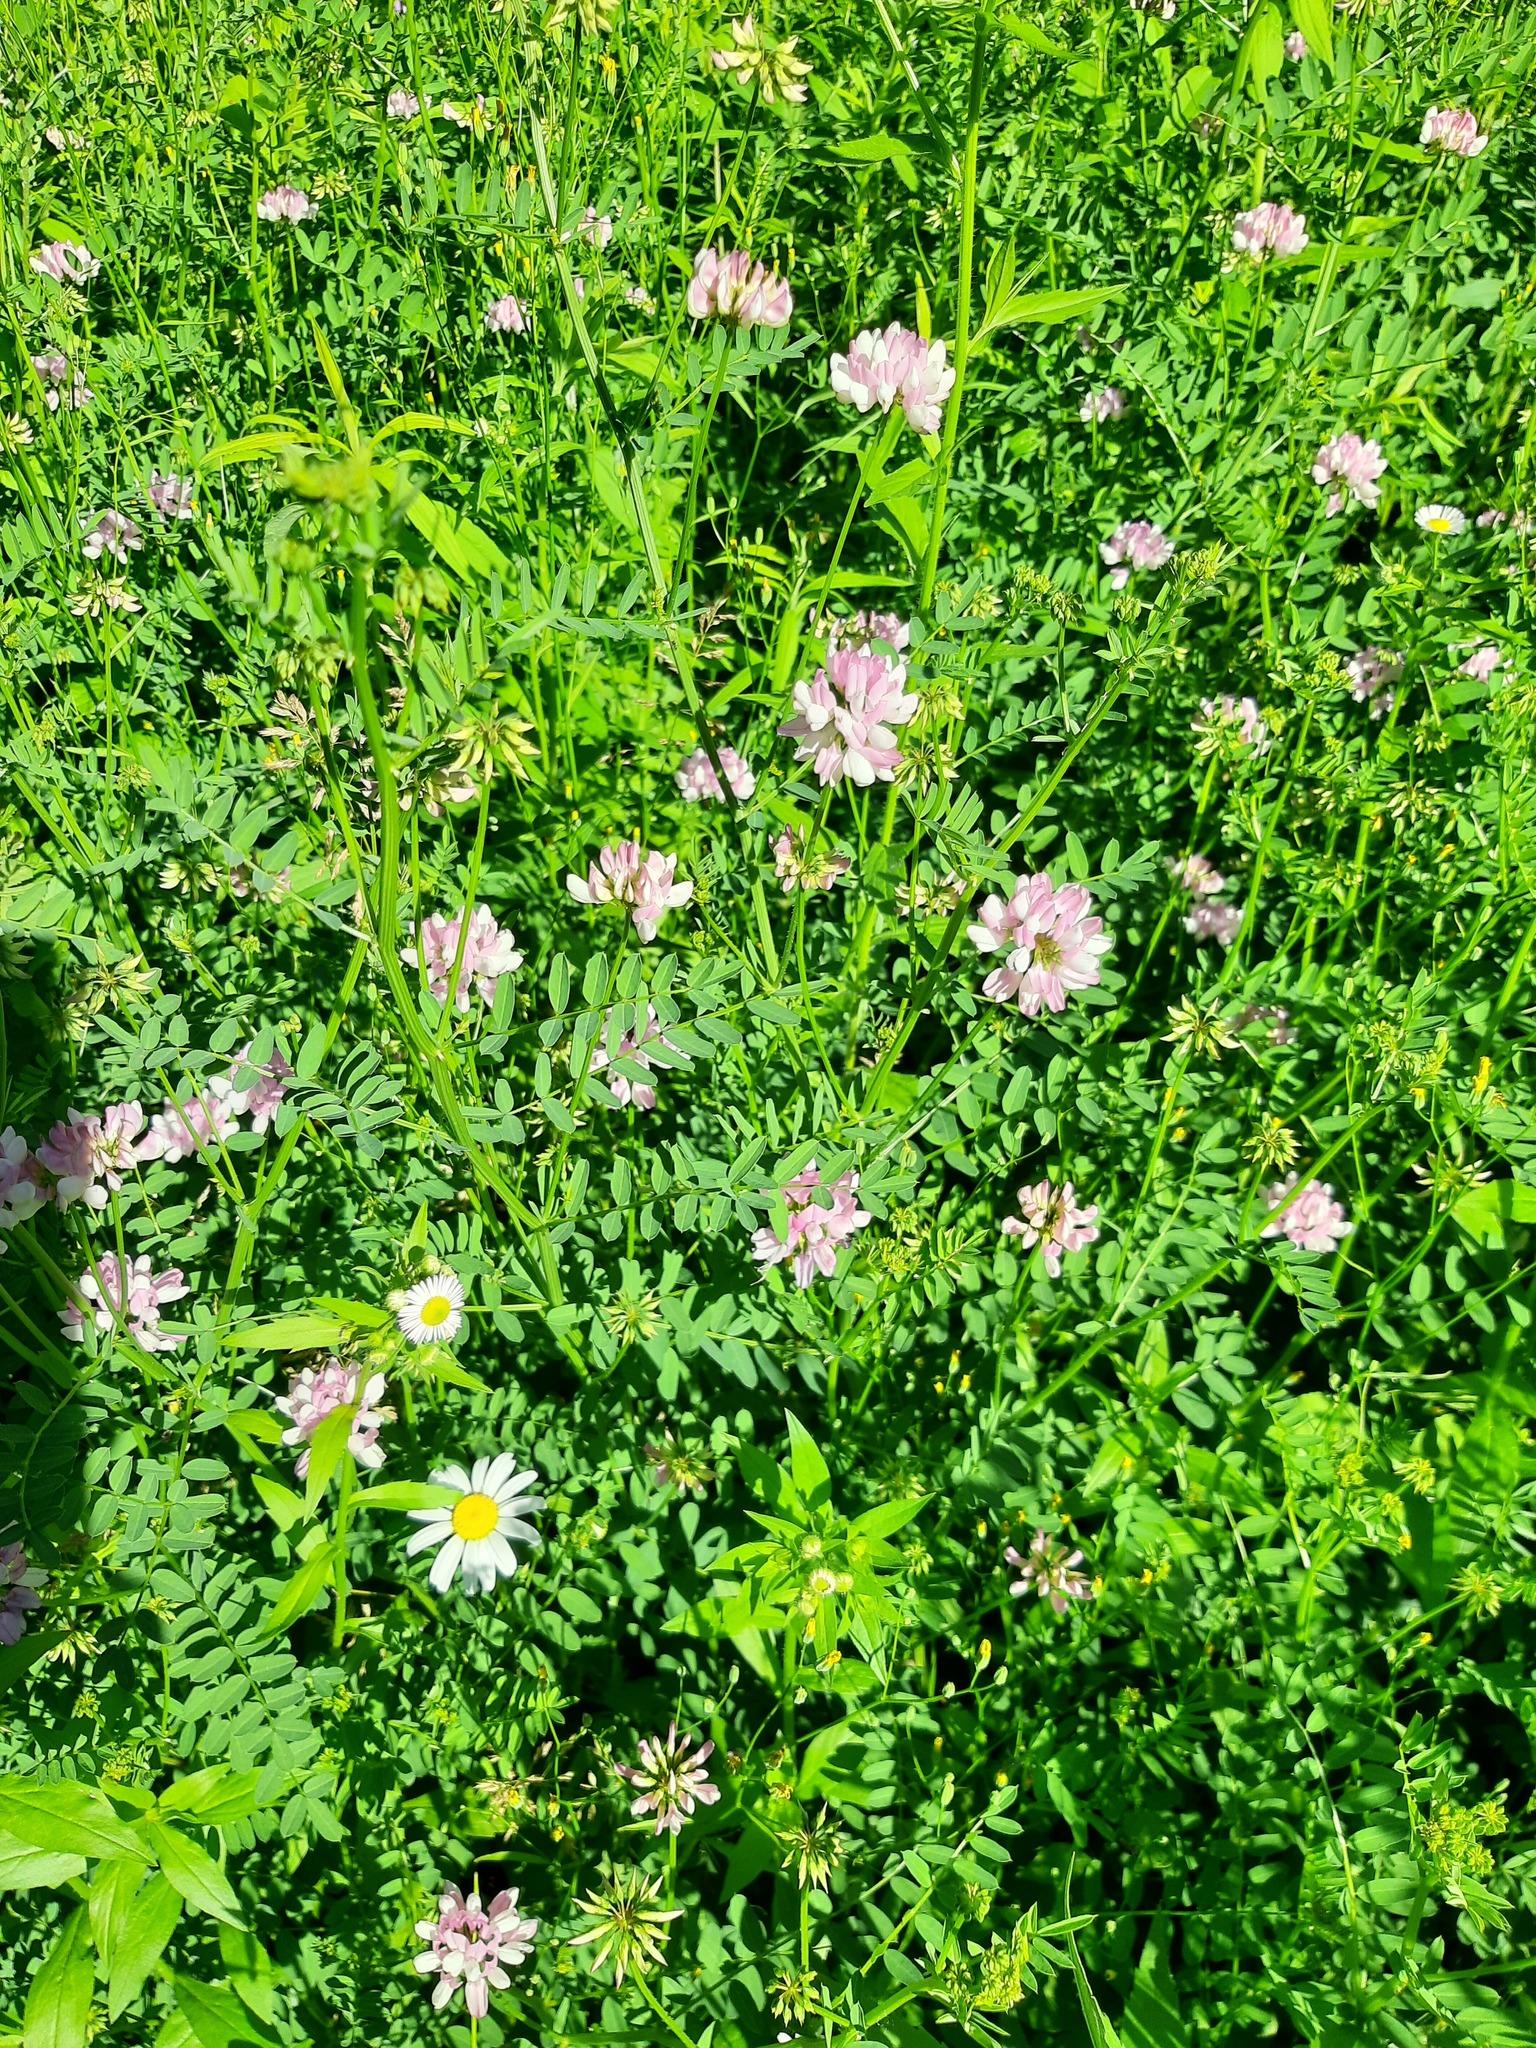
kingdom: Plantae
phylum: Tracheophyta
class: Magnoliopsida
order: Fabales
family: Fabaceae
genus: Coronilla
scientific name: Coronilla varia
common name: Crownvetch
